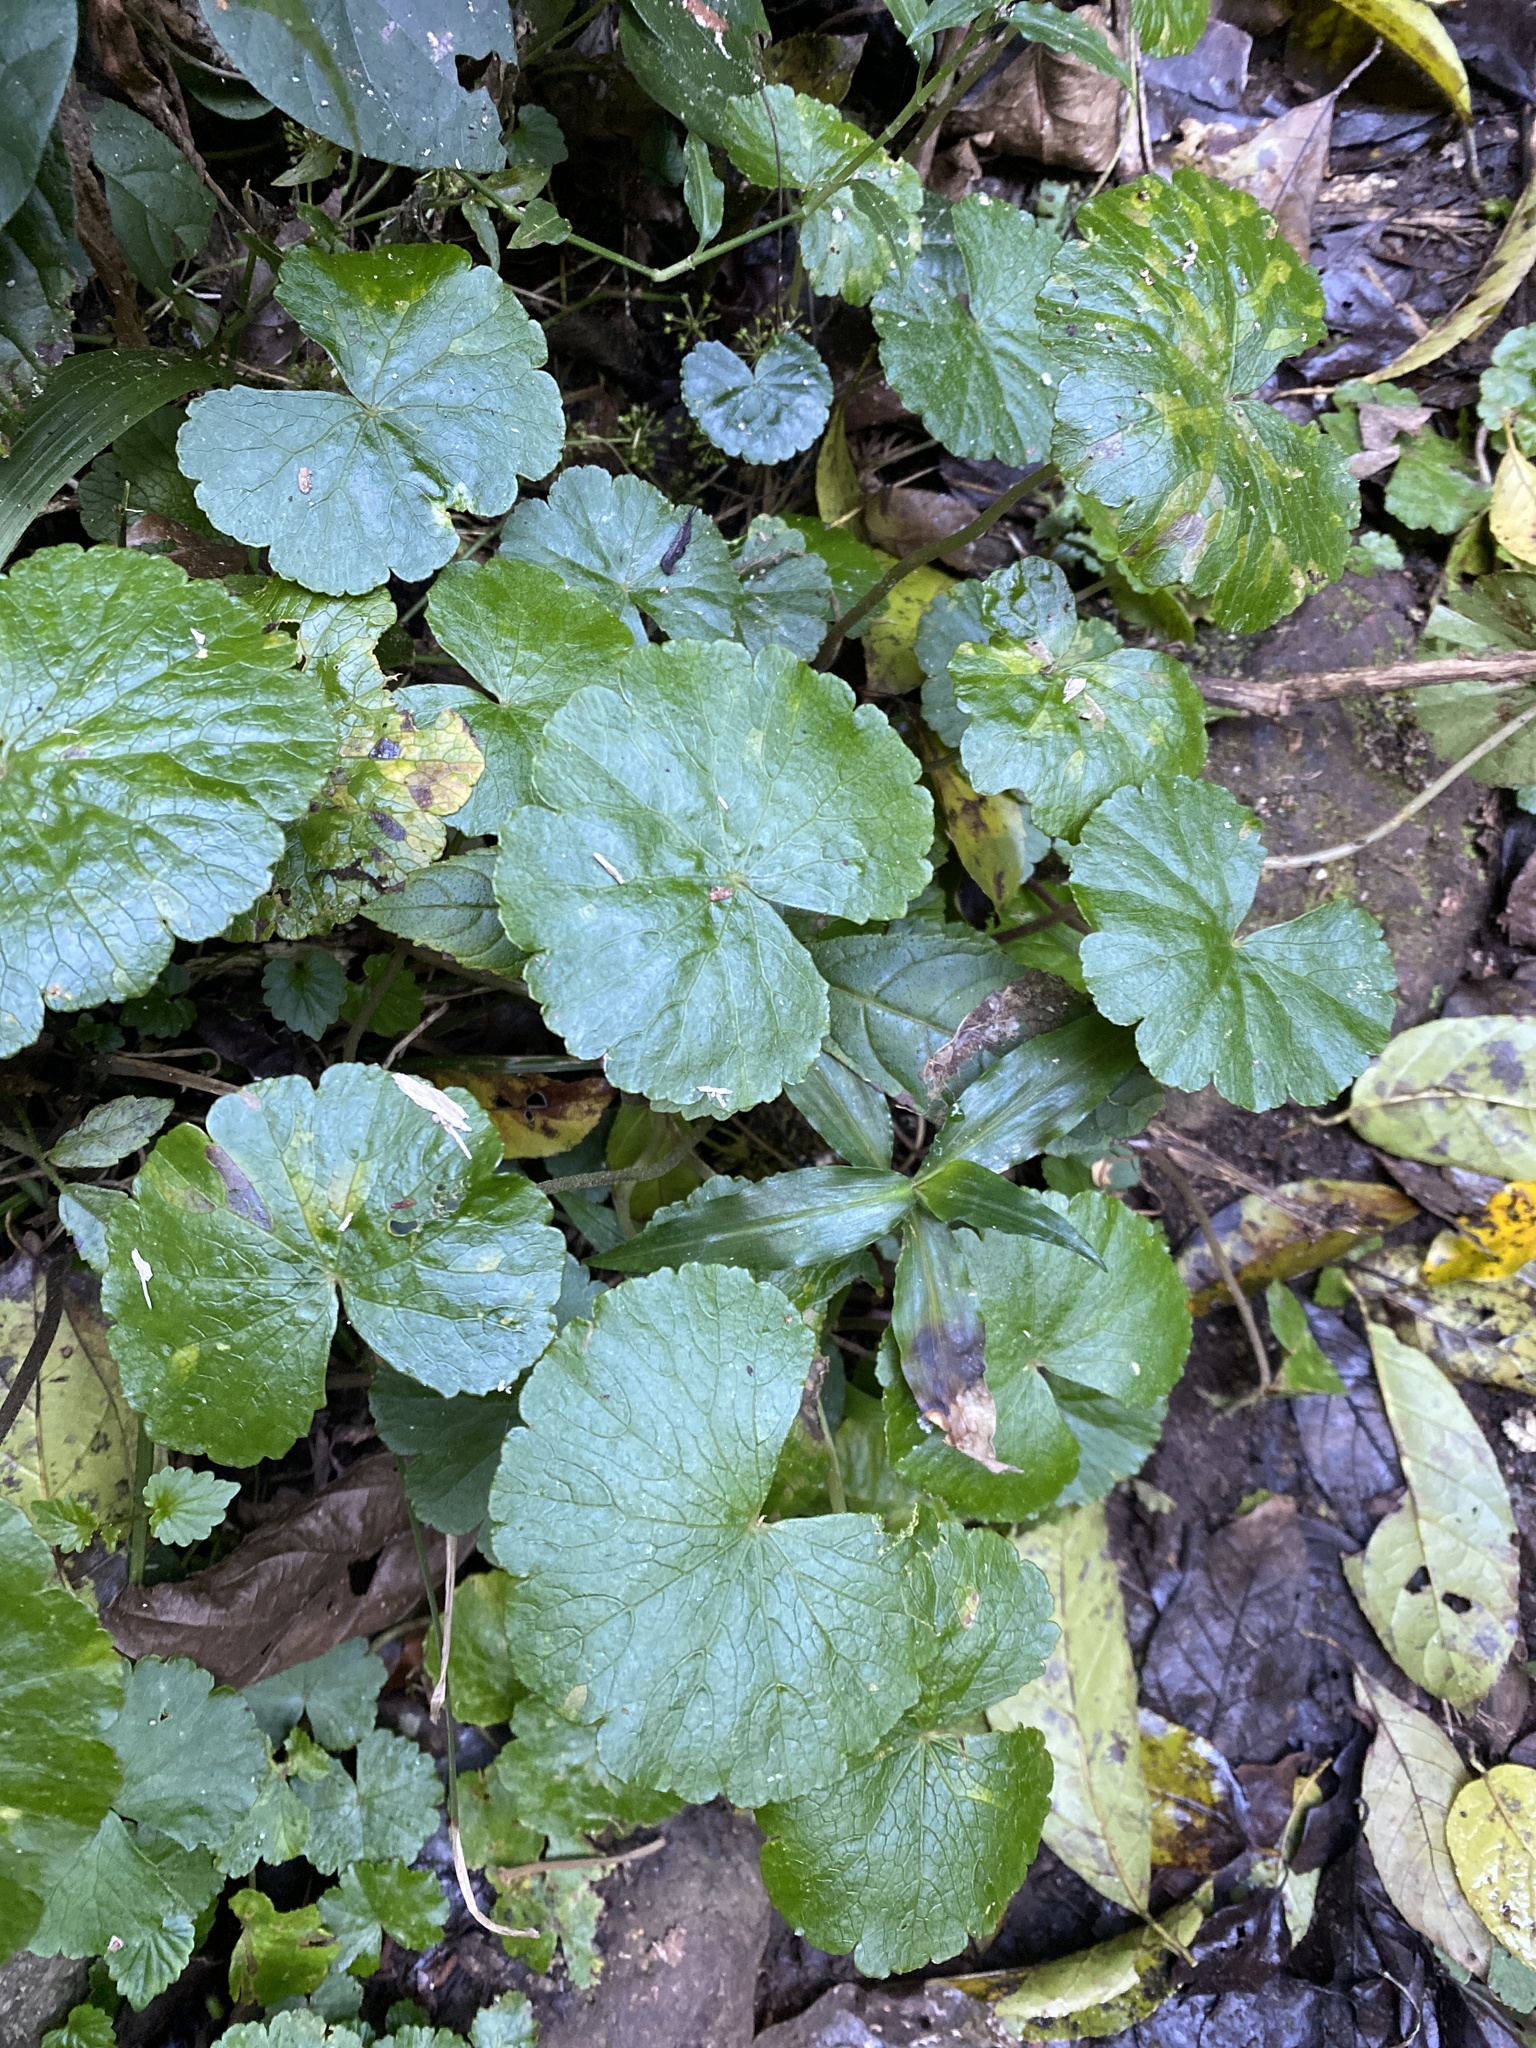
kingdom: Plantae
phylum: Tracheophyta
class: Magnoliopsida
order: Apiales
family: Araliaceae
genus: Hydrocotyle
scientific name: Hydrocotyle pedicellosa
